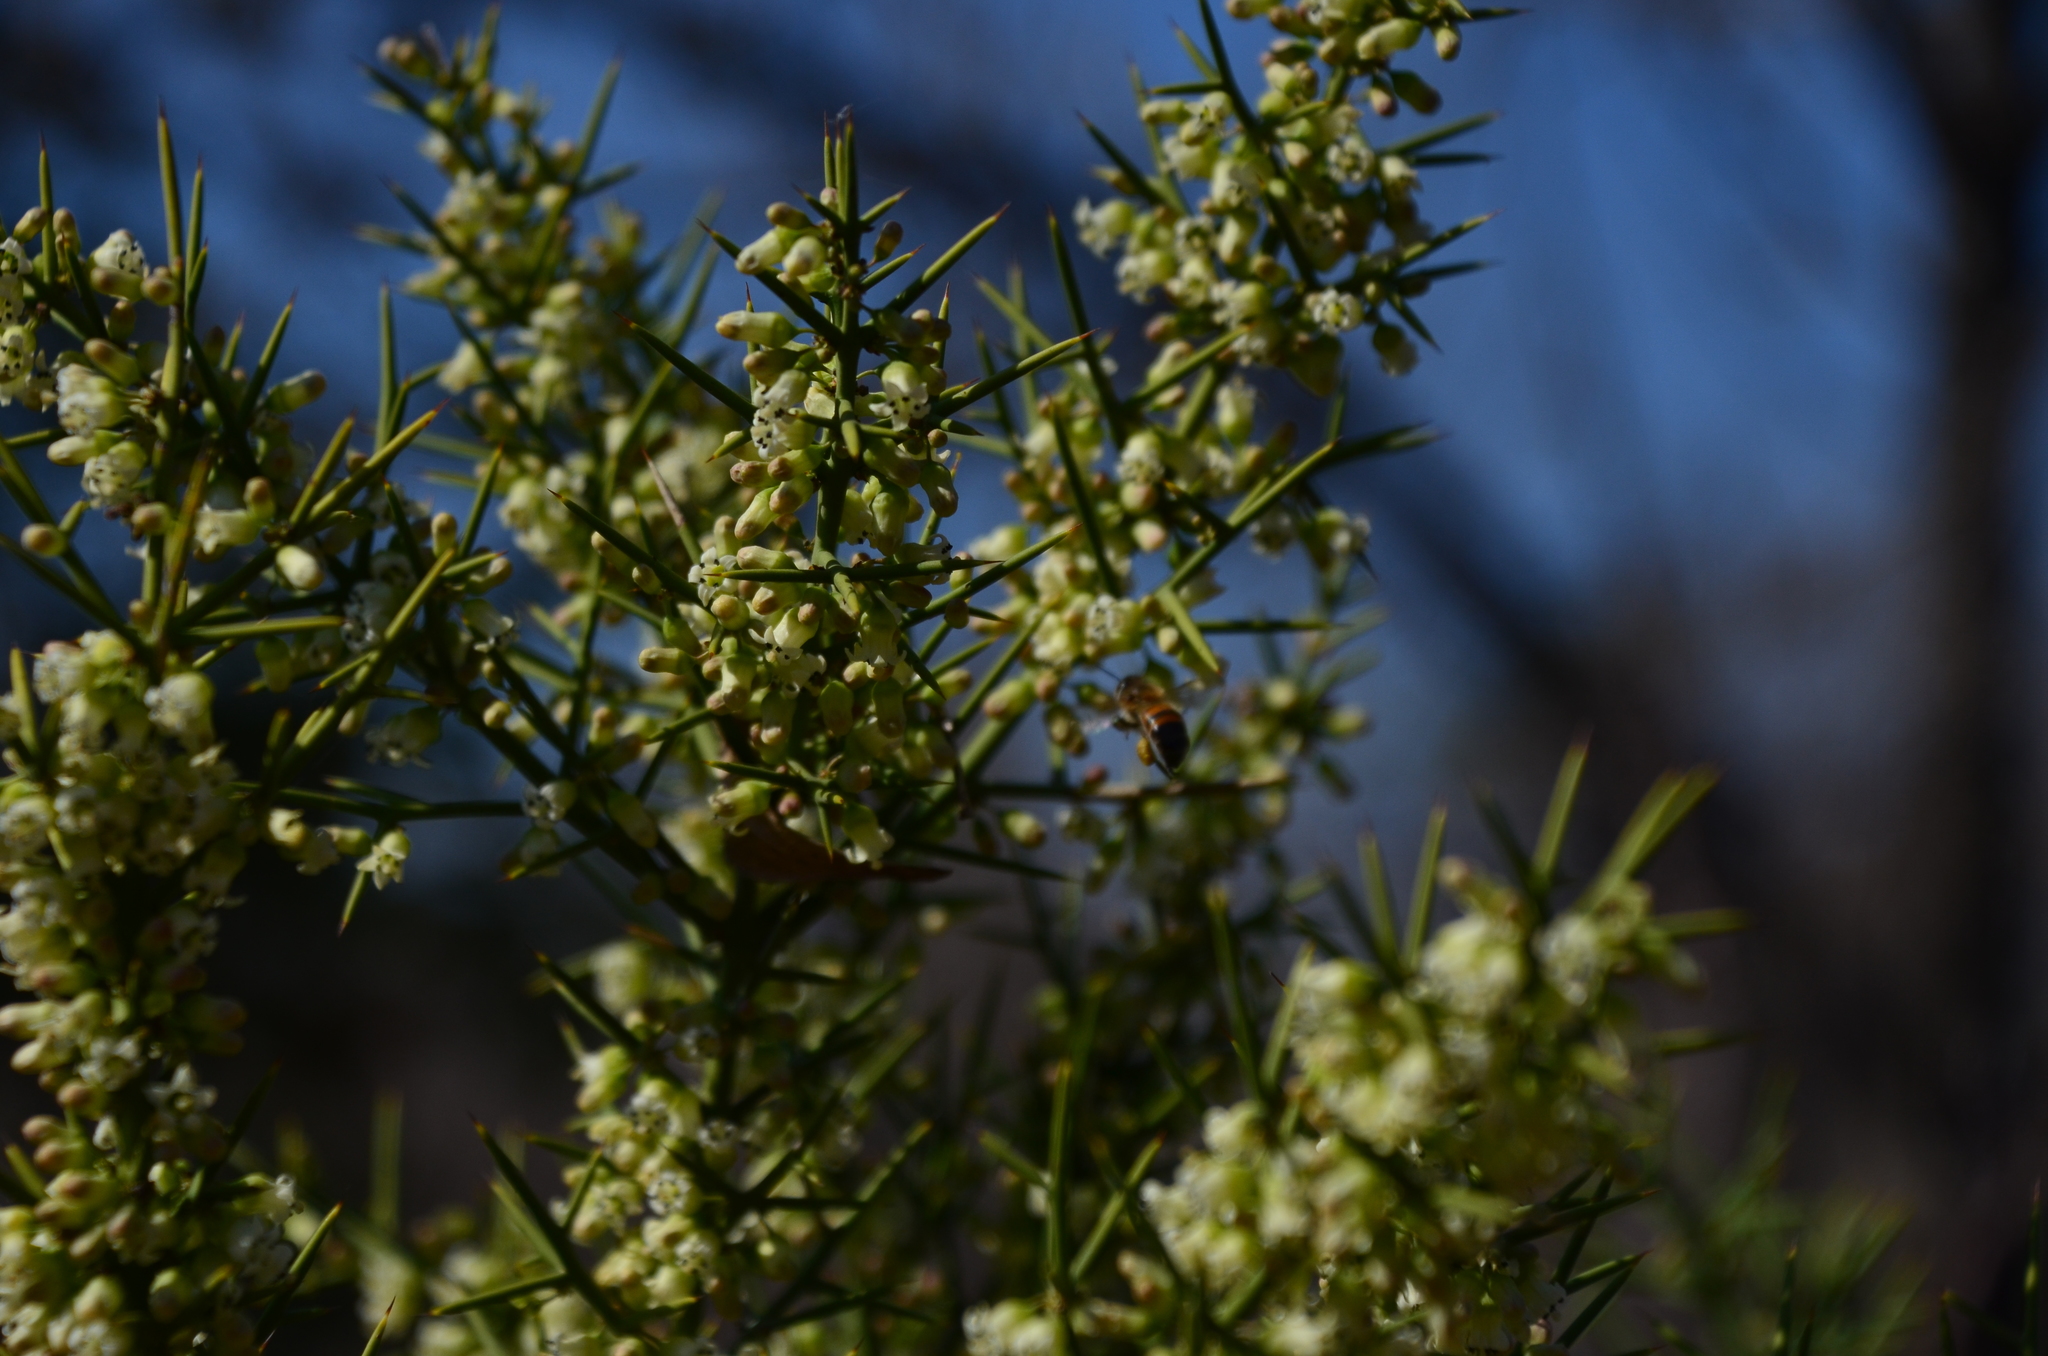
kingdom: Plantae
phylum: Tracheophyta
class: Magnoliopsida
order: Rosales
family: Rhamnaceae
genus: Discaria
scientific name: Discaria americana
